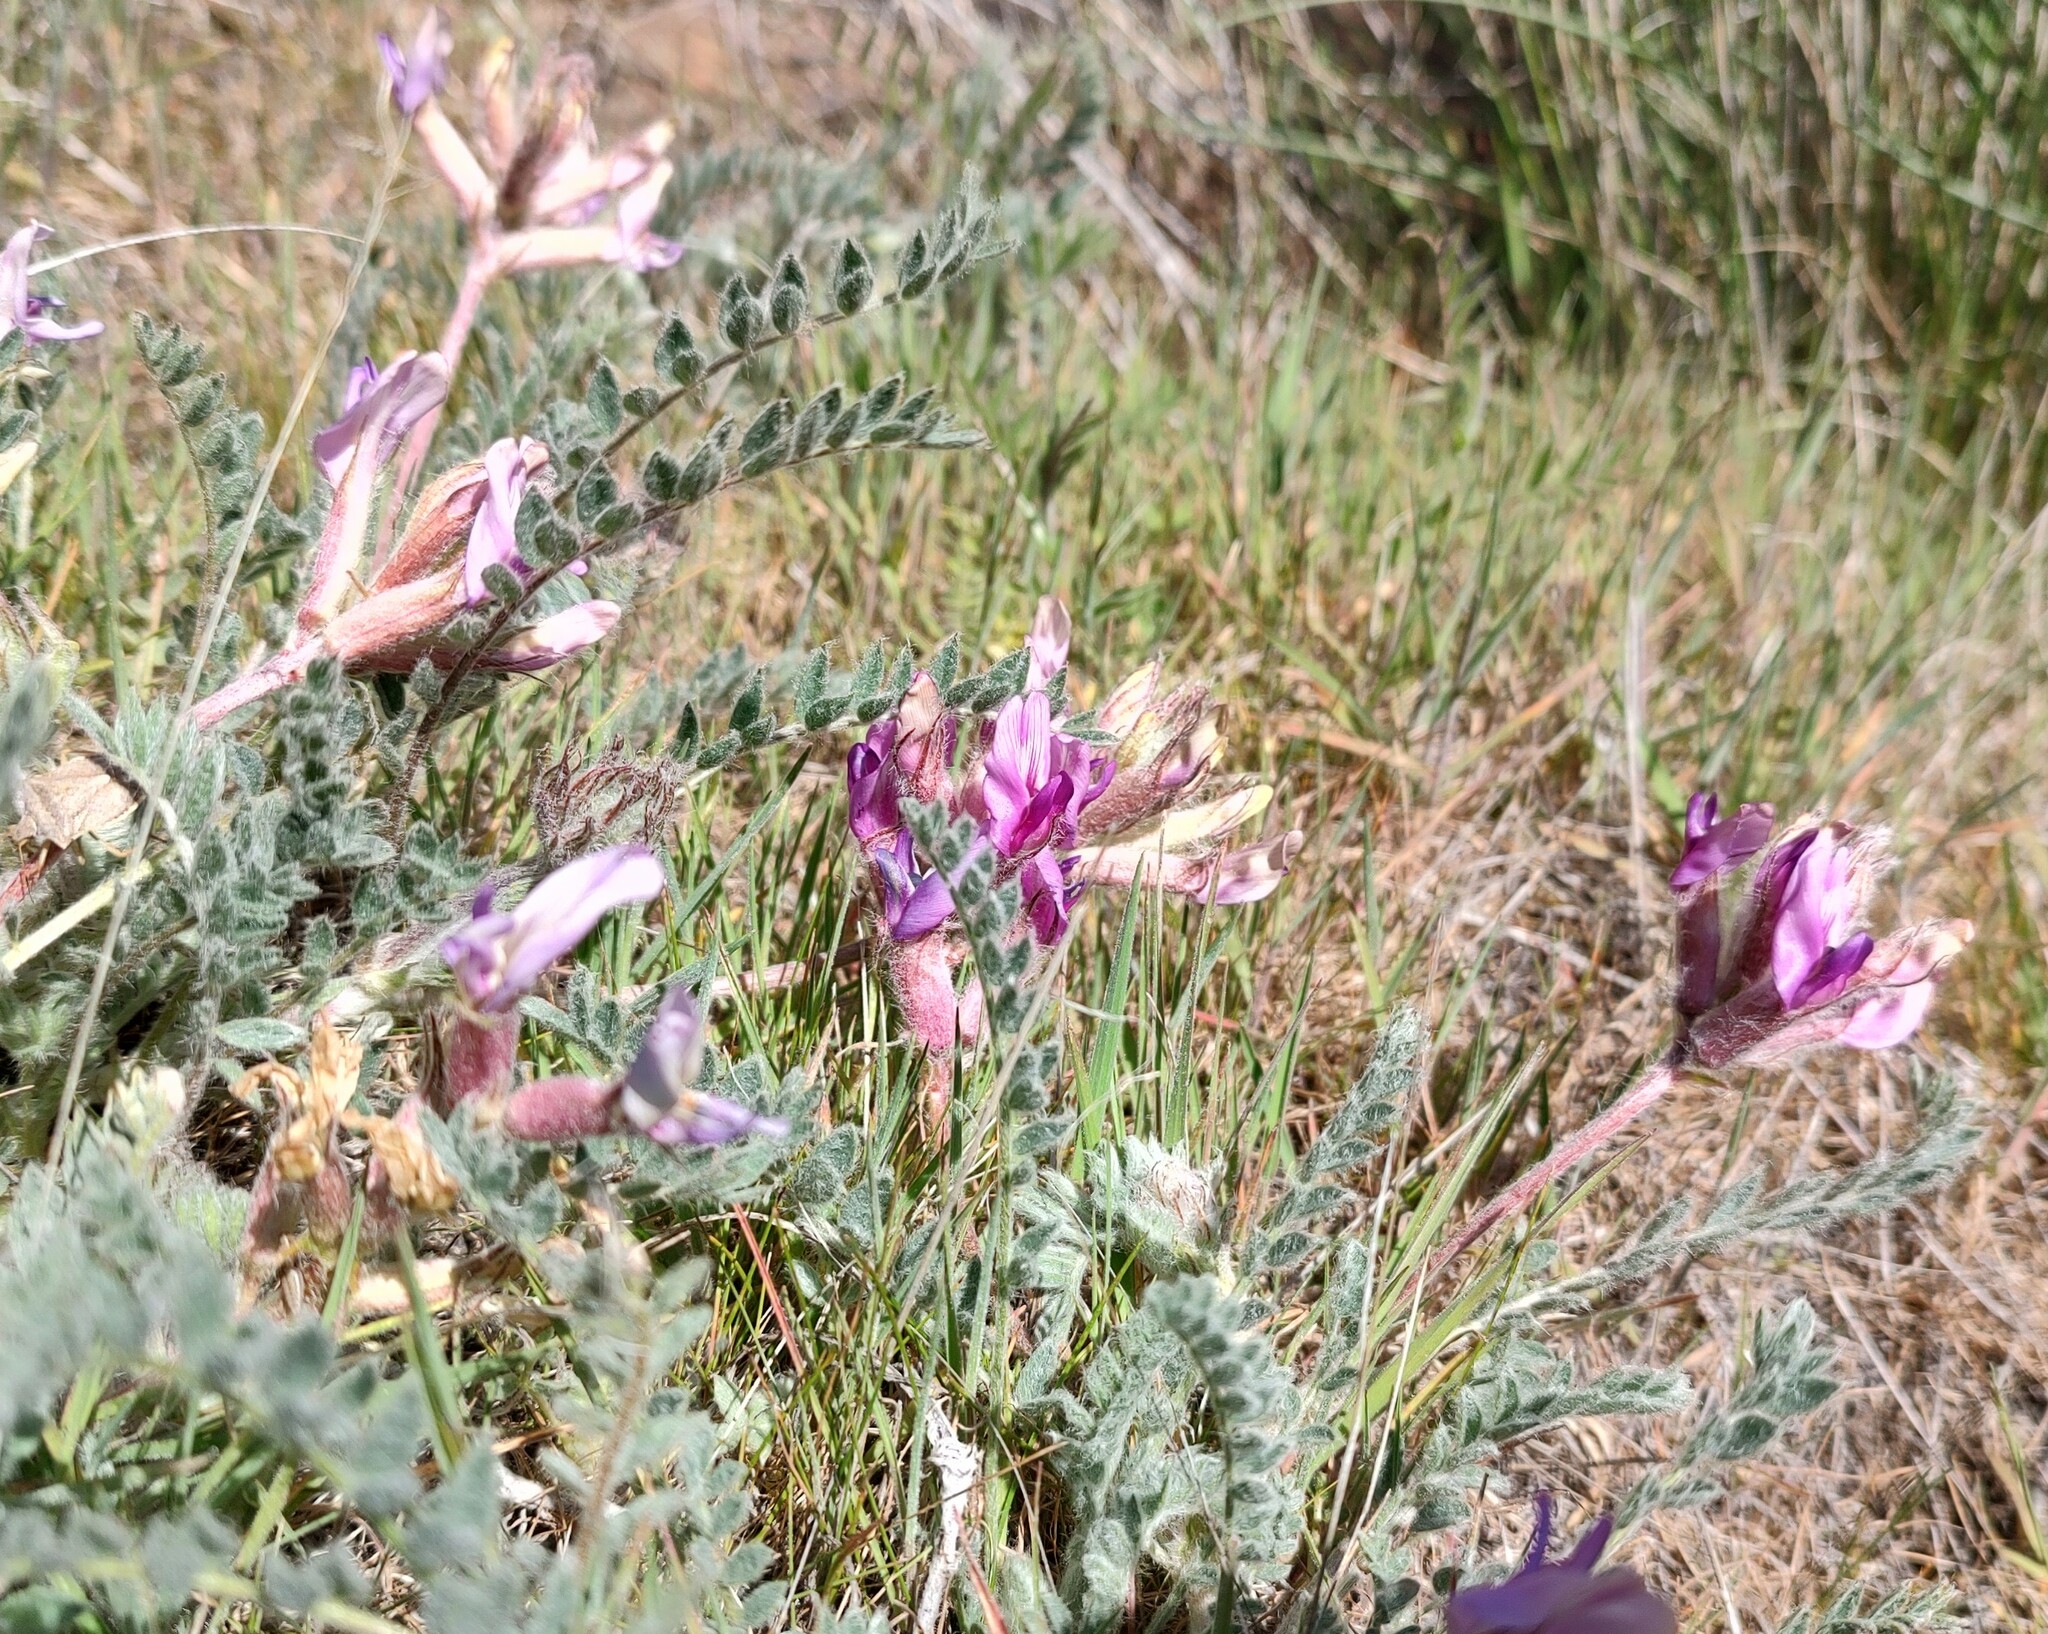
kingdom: Plantae
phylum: Tracheophyta
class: Magnoliopsida
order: Fabales
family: Fabaceae
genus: Astragalus
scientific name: Astragalus inflexus
